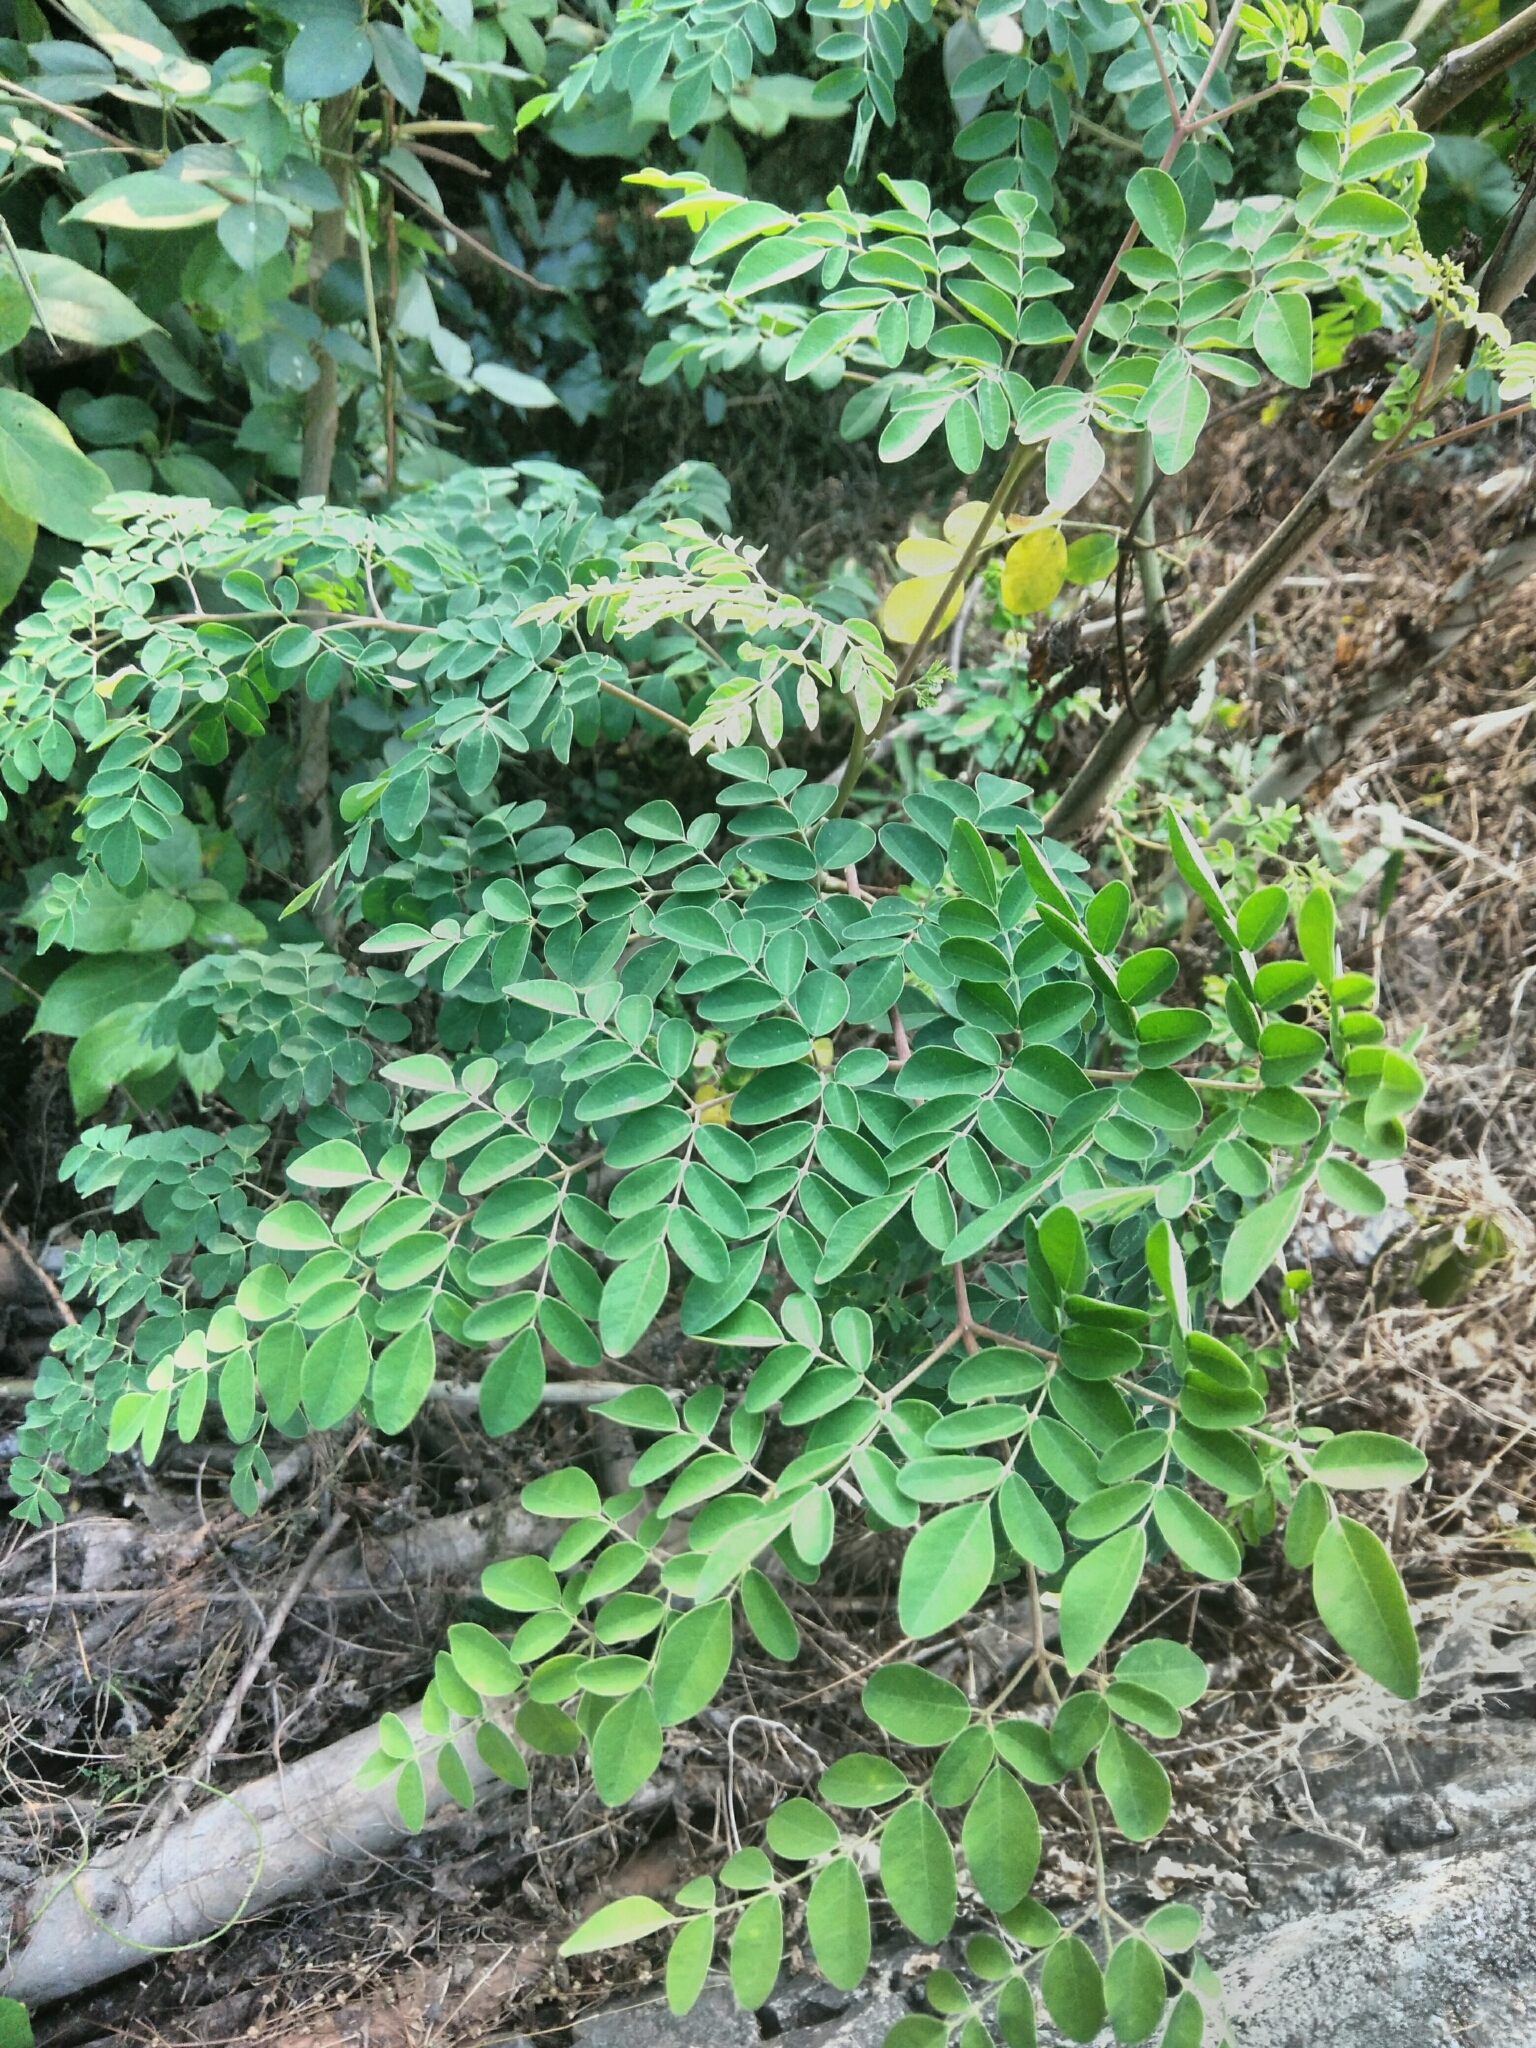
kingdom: Plantae
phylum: Tracheophyta
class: Magnoliopsida
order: Brassicales
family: Moringaceae
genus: Moringa
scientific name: Moringa oleifera
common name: Horseradish-tree
